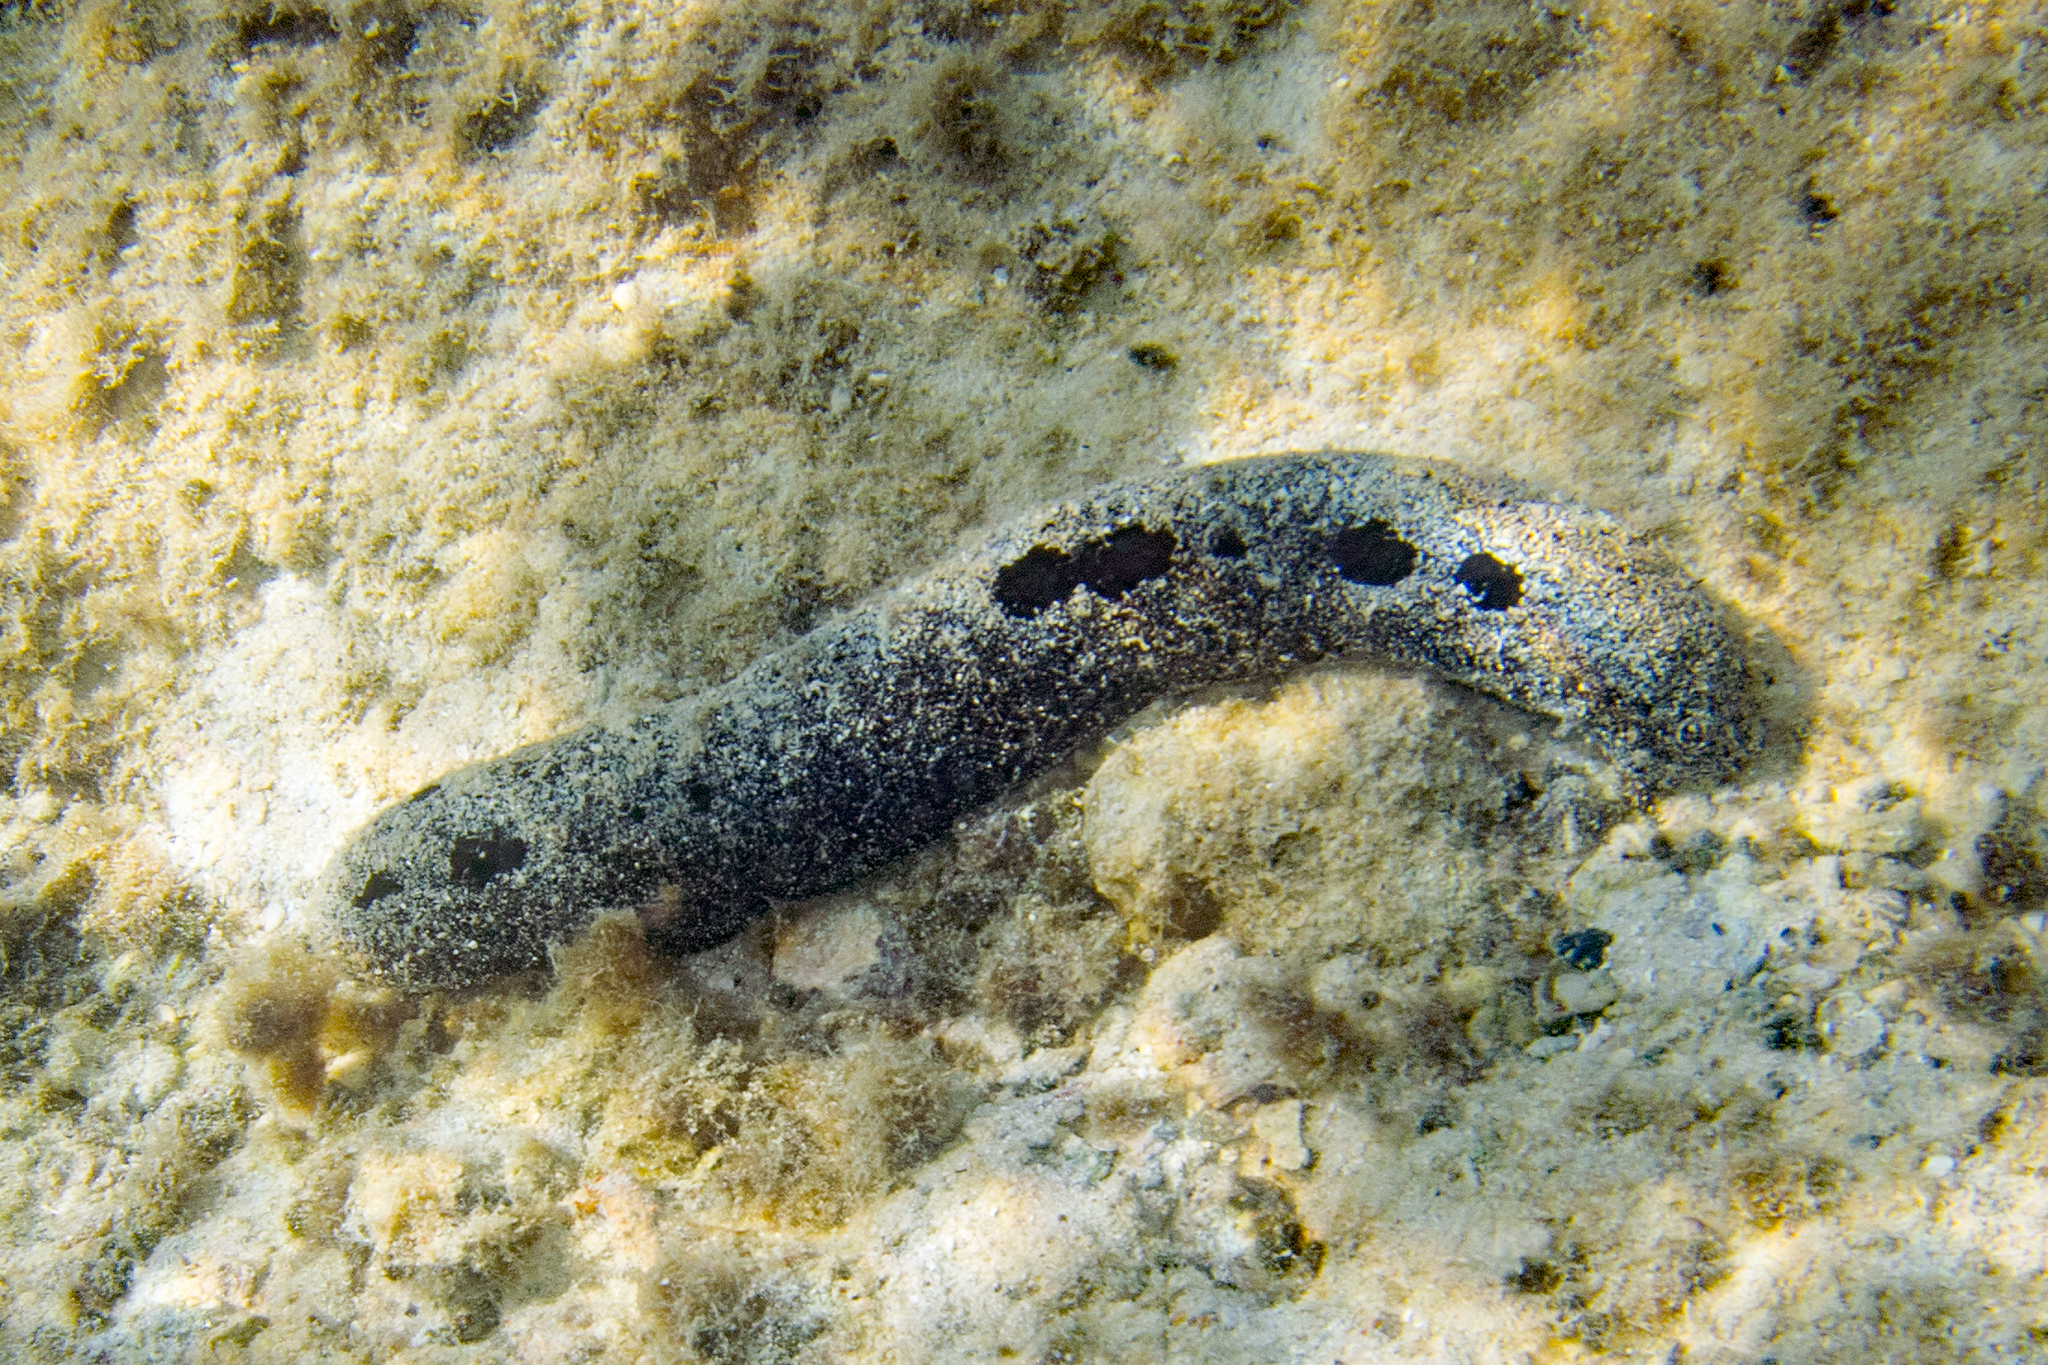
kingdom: Animalia
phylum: Echinodermata
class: Holothuroidea
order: Holothuriida
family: Holothuriidae
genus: Holothuria
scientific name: Holothuria atra
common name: Lollyfish
